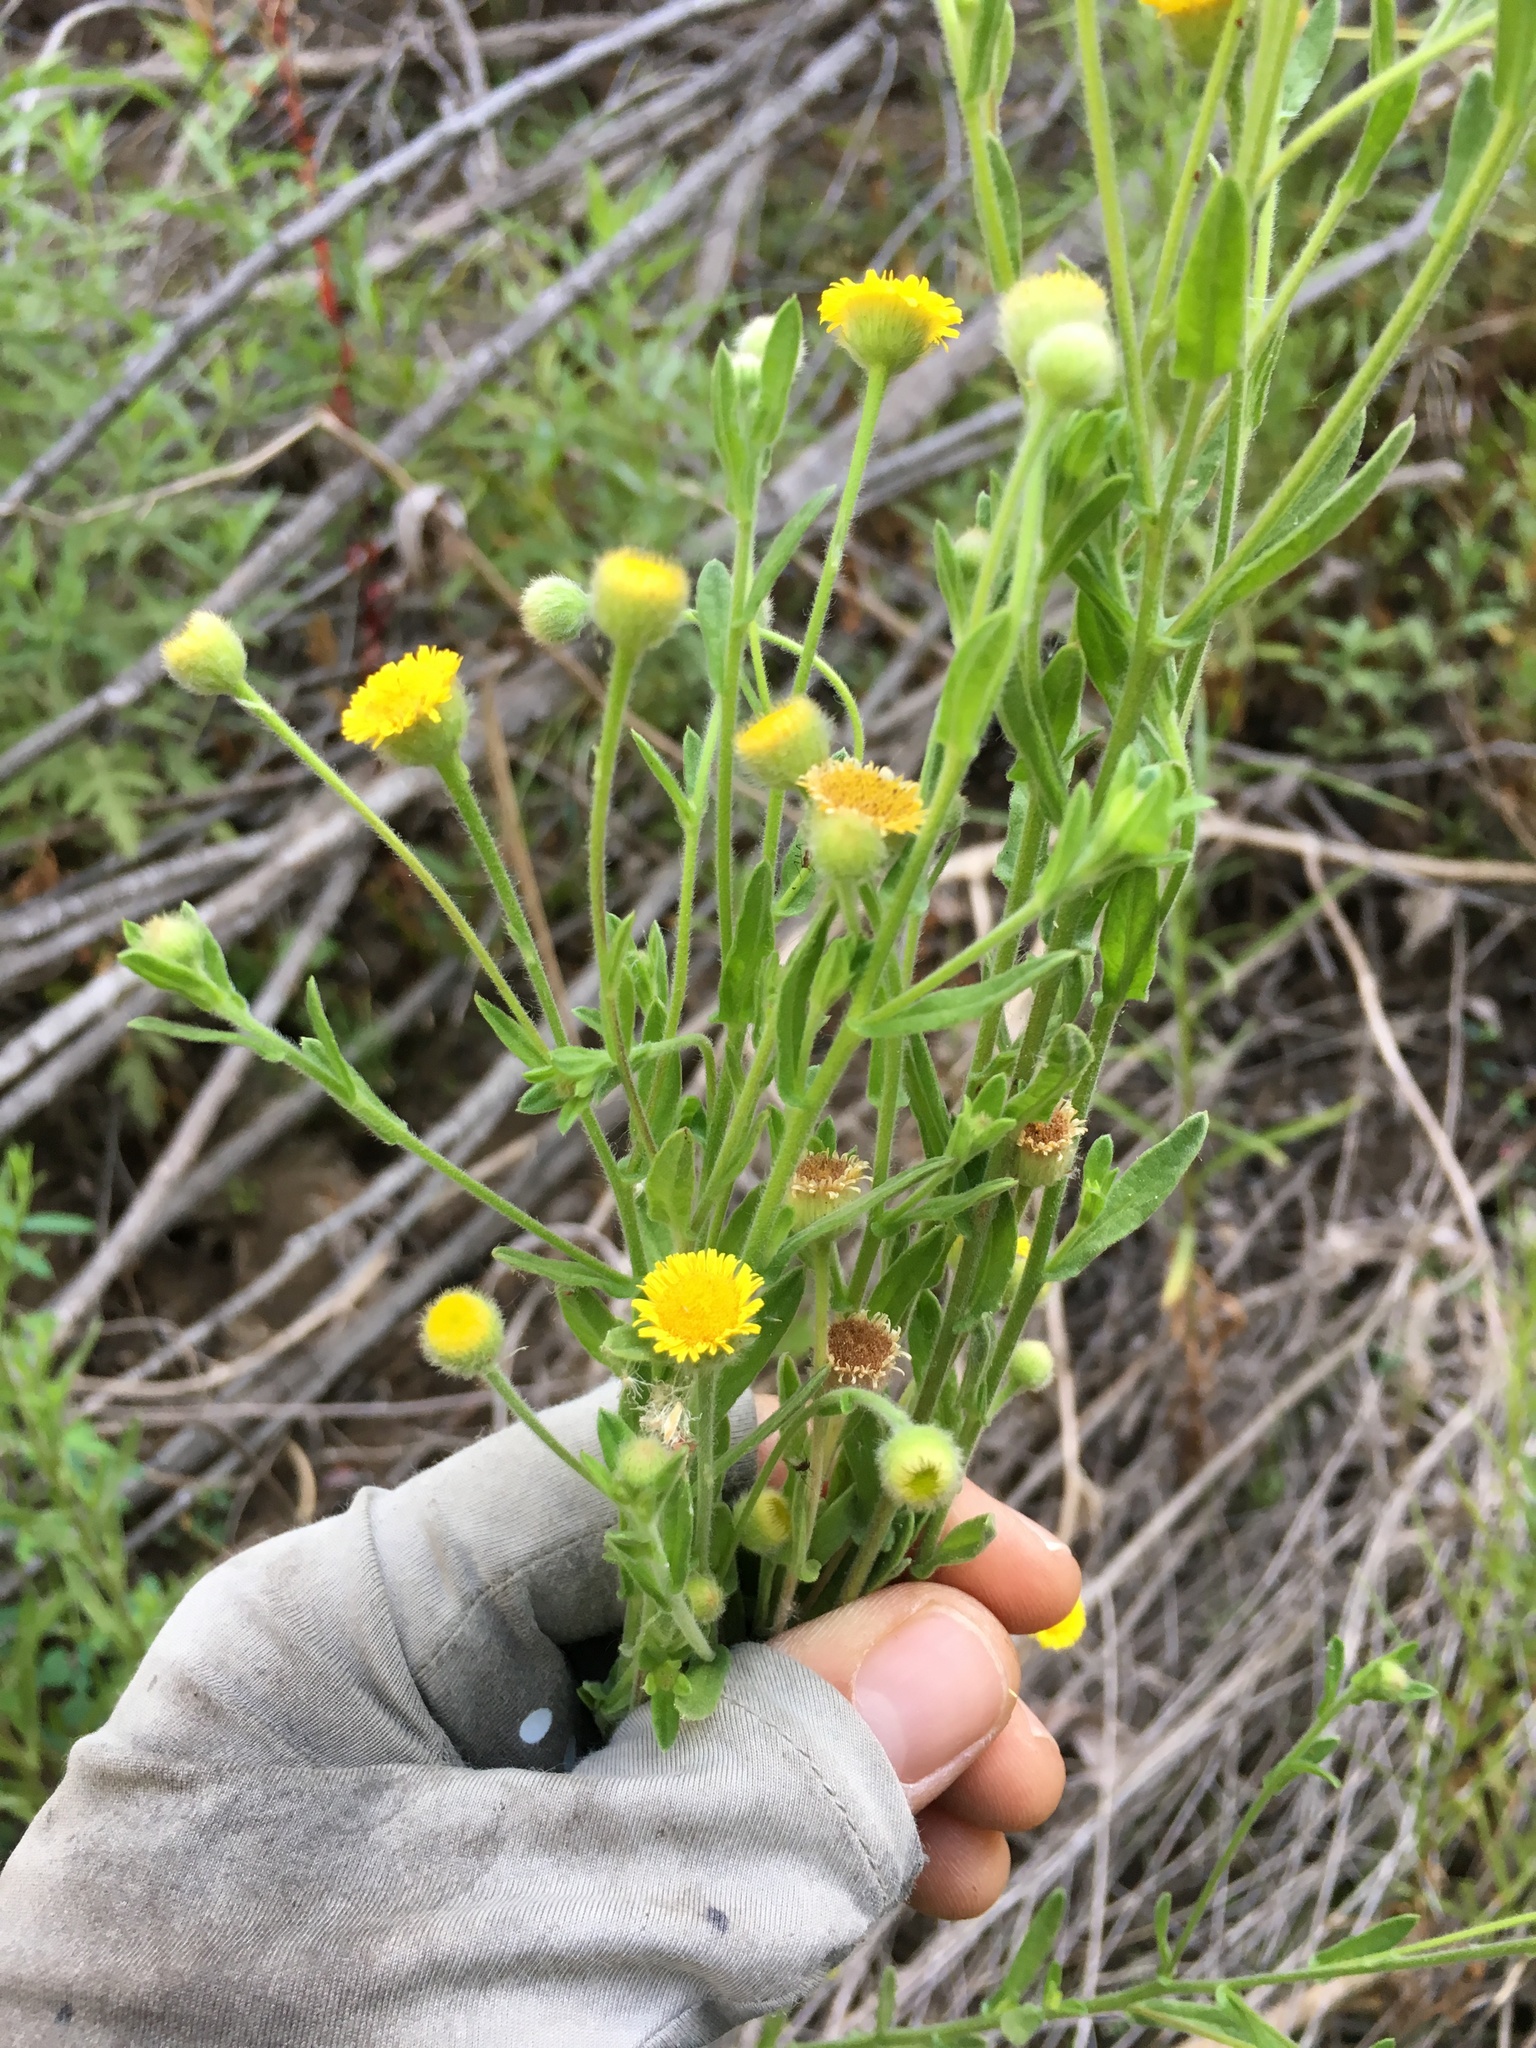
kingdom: Plantae
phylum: Tracheophyta
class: Magnoliopsida
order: Asterales
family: Asteraceae
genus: Pulicaria
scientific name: Pulicaria paludosa
